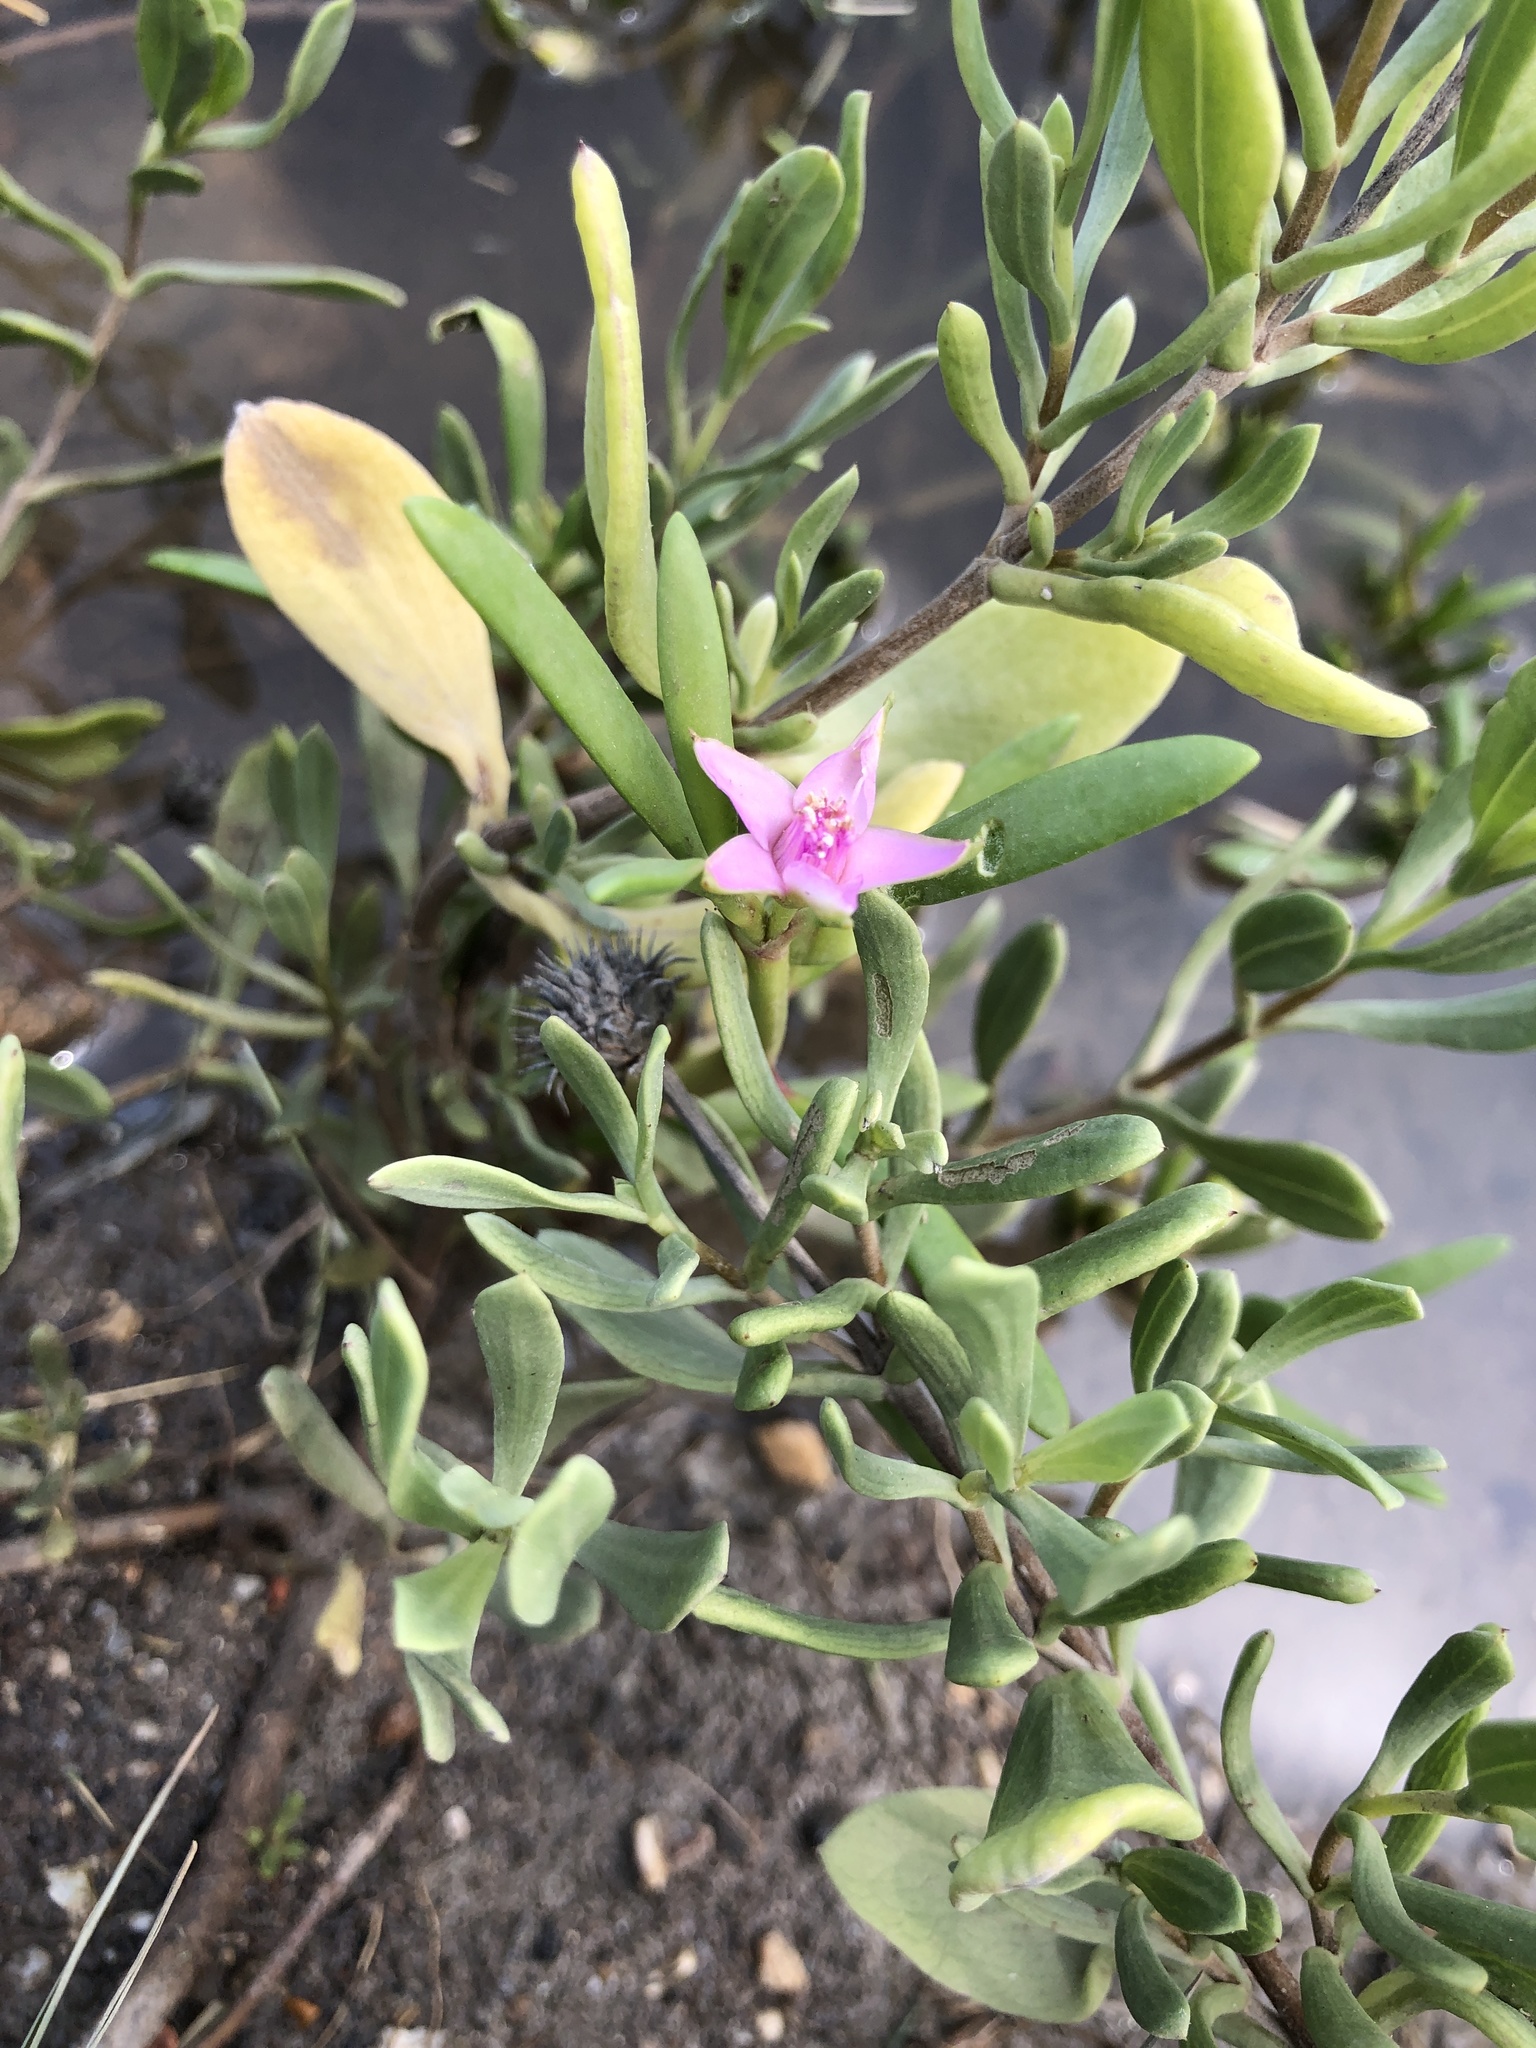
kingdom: Plantae
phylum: Tracheophyta
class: Magnoliopsida
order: Caryophyllales
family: Aizoaceae
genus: Sesuvium
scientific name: Sesuvium portulacastrum
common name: Sea-purslane
